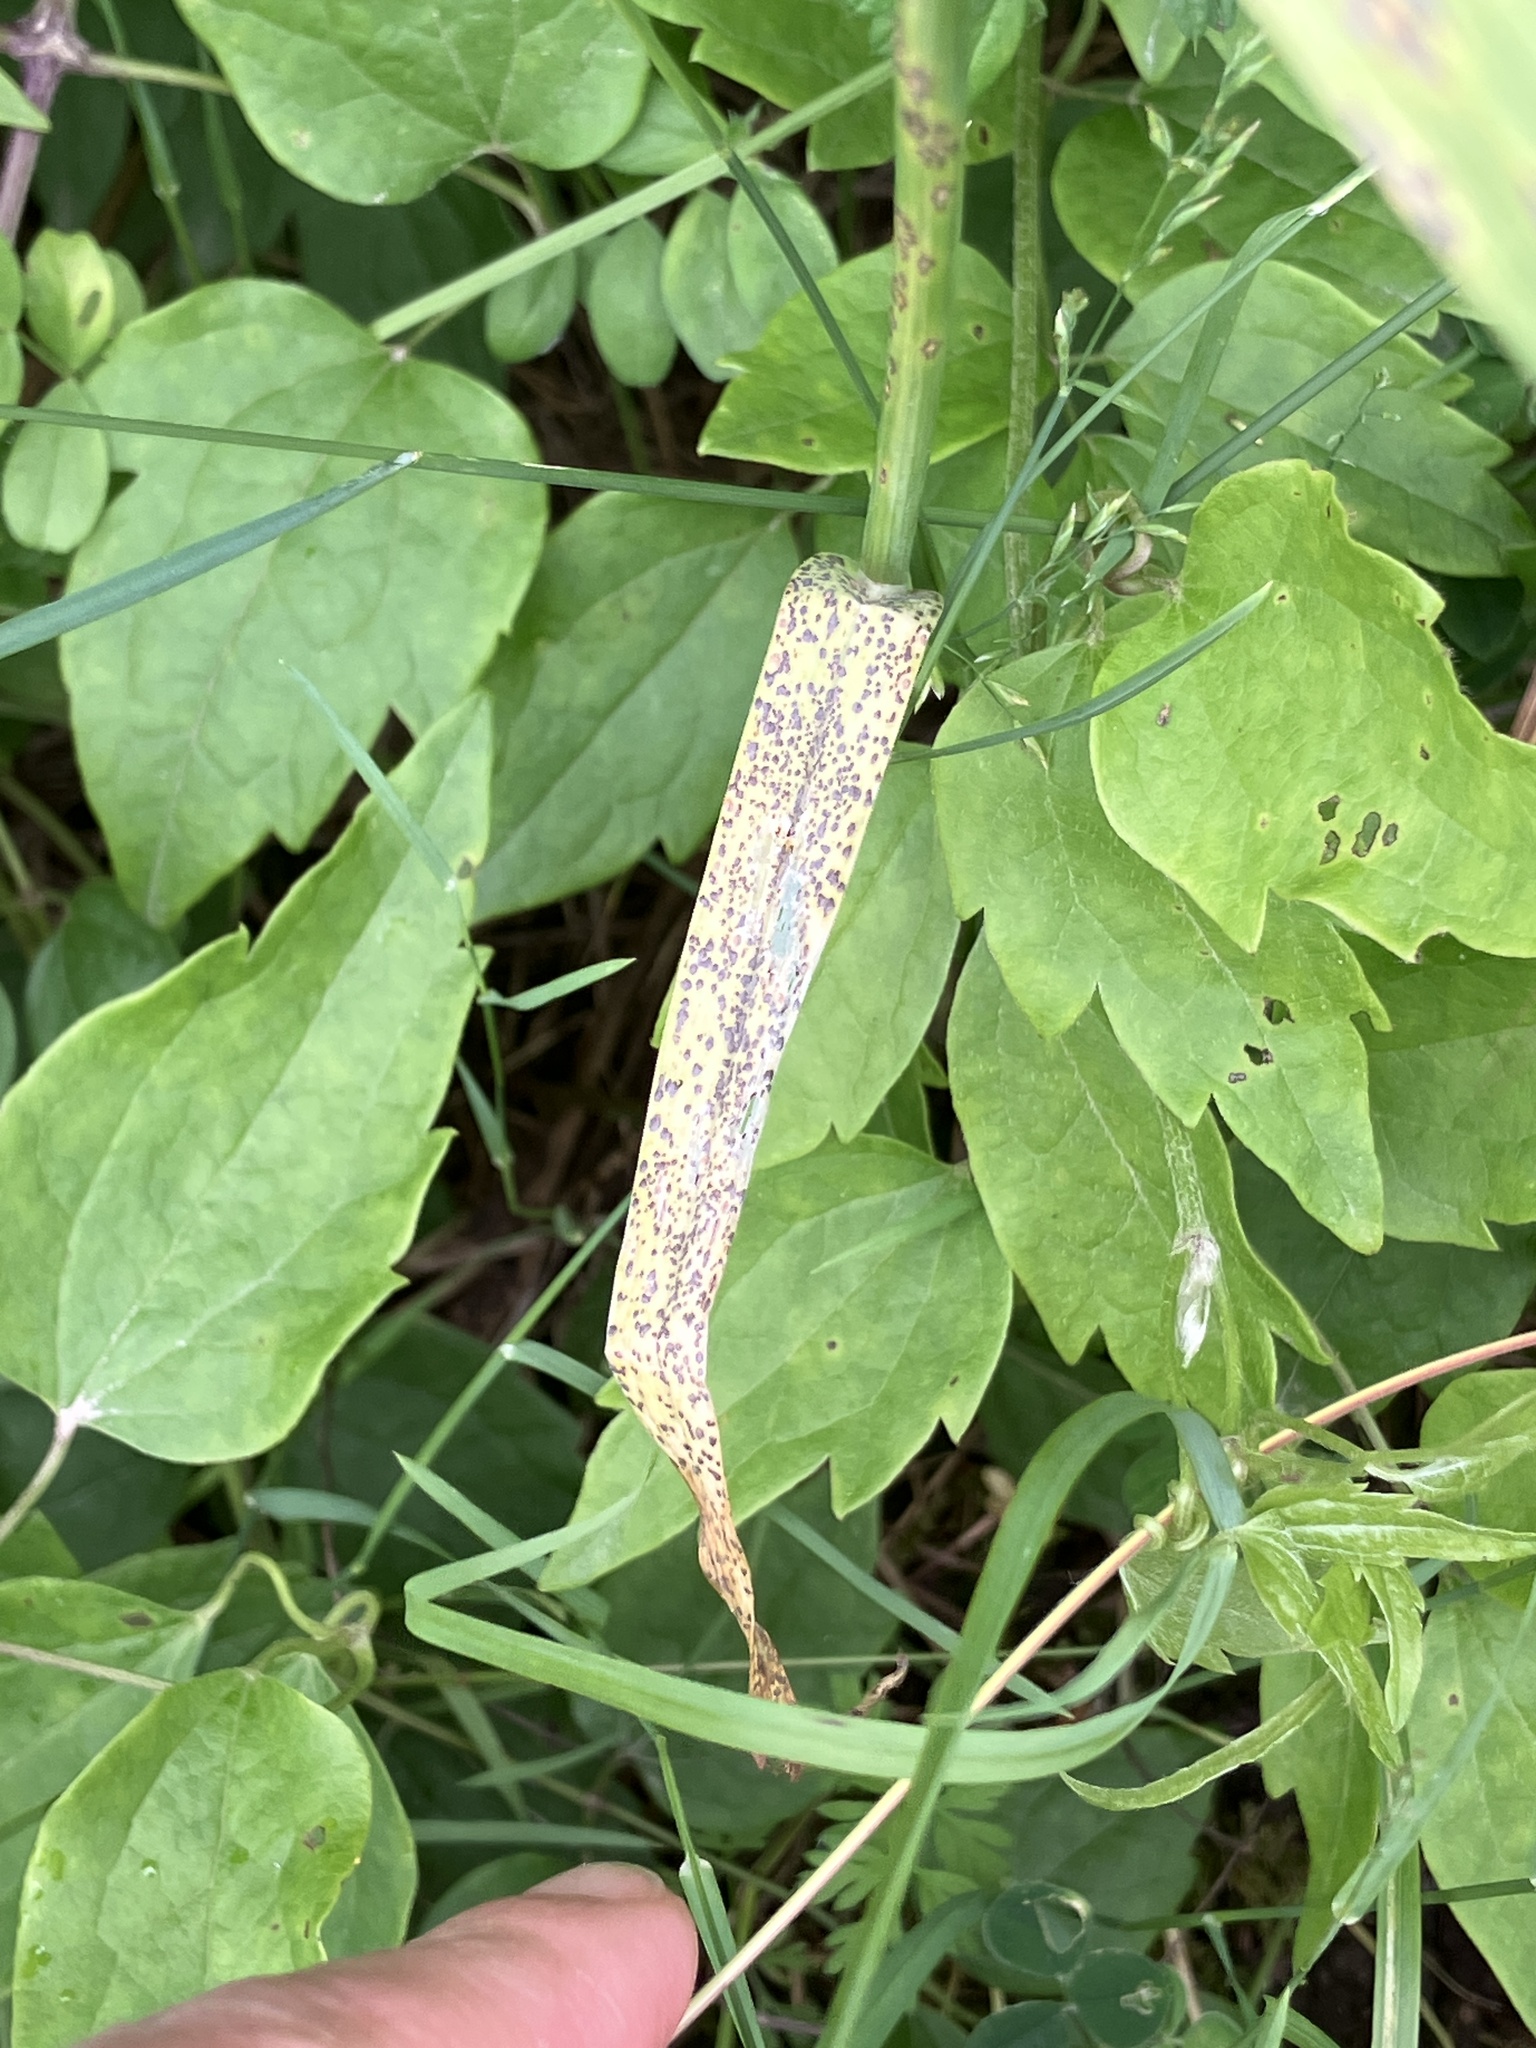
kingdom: Plantae
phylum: Tracheophyta
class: Liliopsida
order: Asparagales
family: Amaryllidaceae
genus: Allium
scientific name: Allium scorodoprasum
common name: Sand leek
